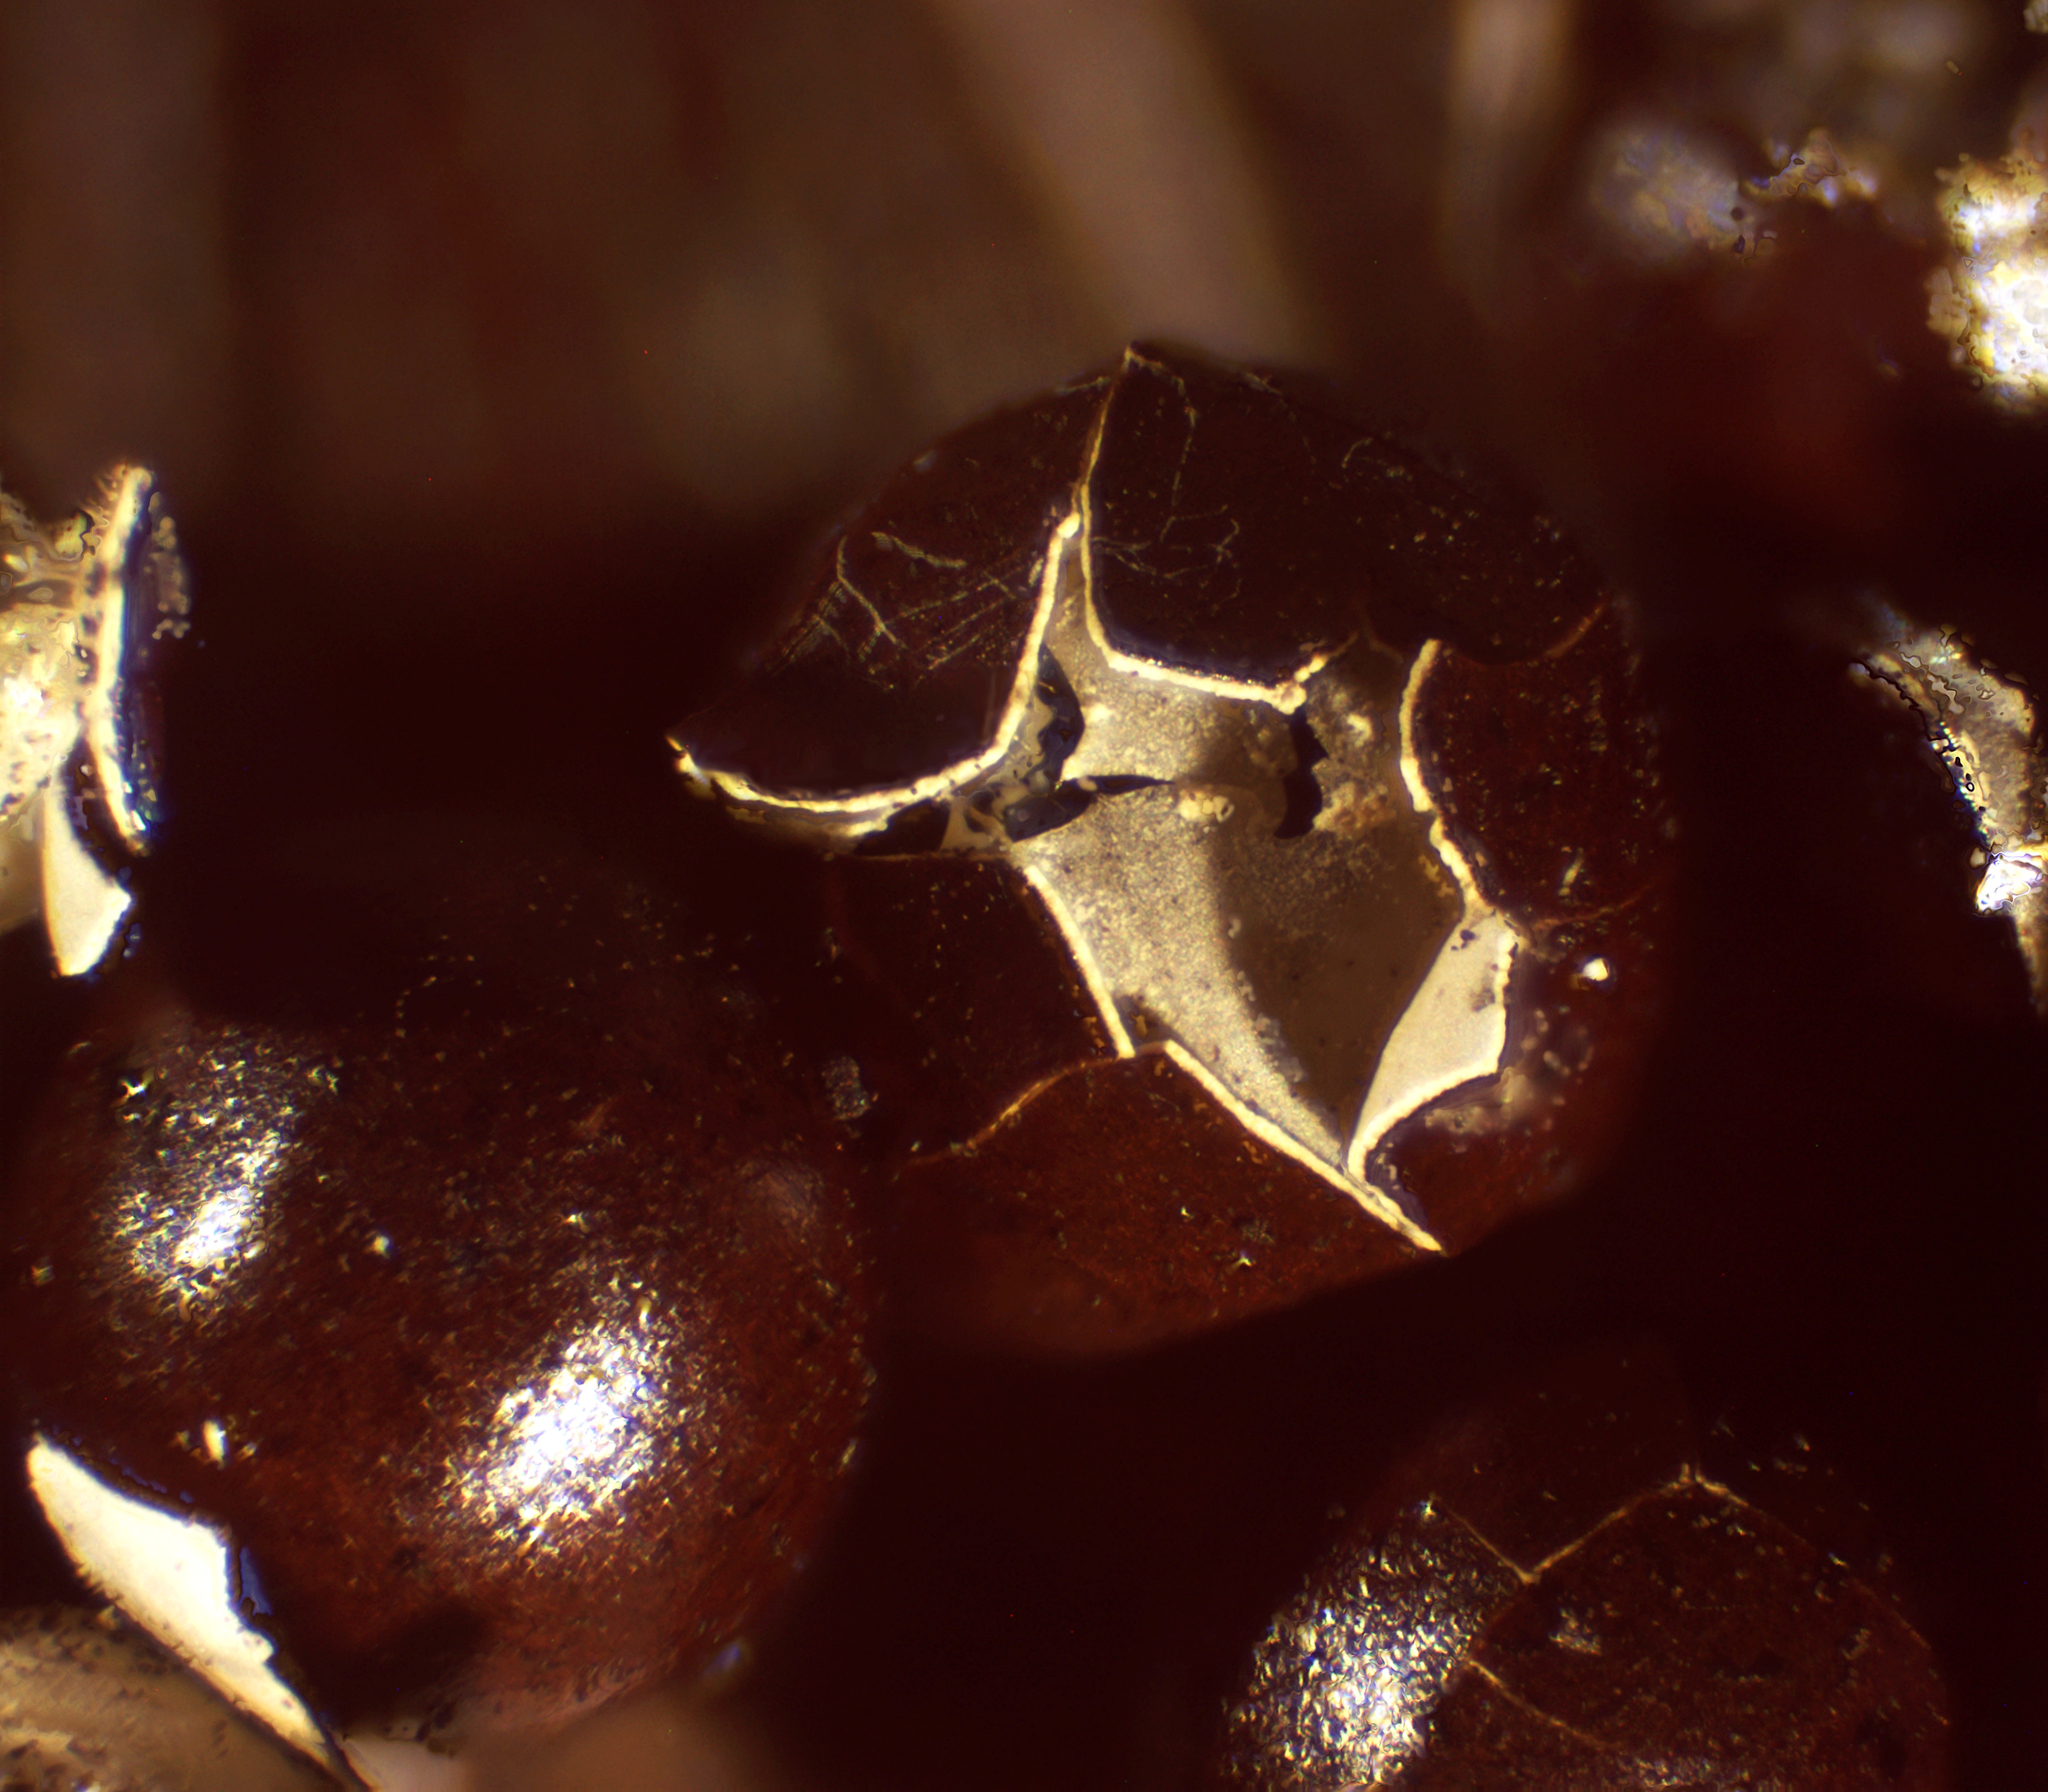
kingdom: Protozoa
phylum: Mycetozoa
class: Myxomycetes
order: Physarales
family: Physaraceae
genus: Leocarpus
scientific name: Leocarpus fragilis
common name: Insect-egg slime
